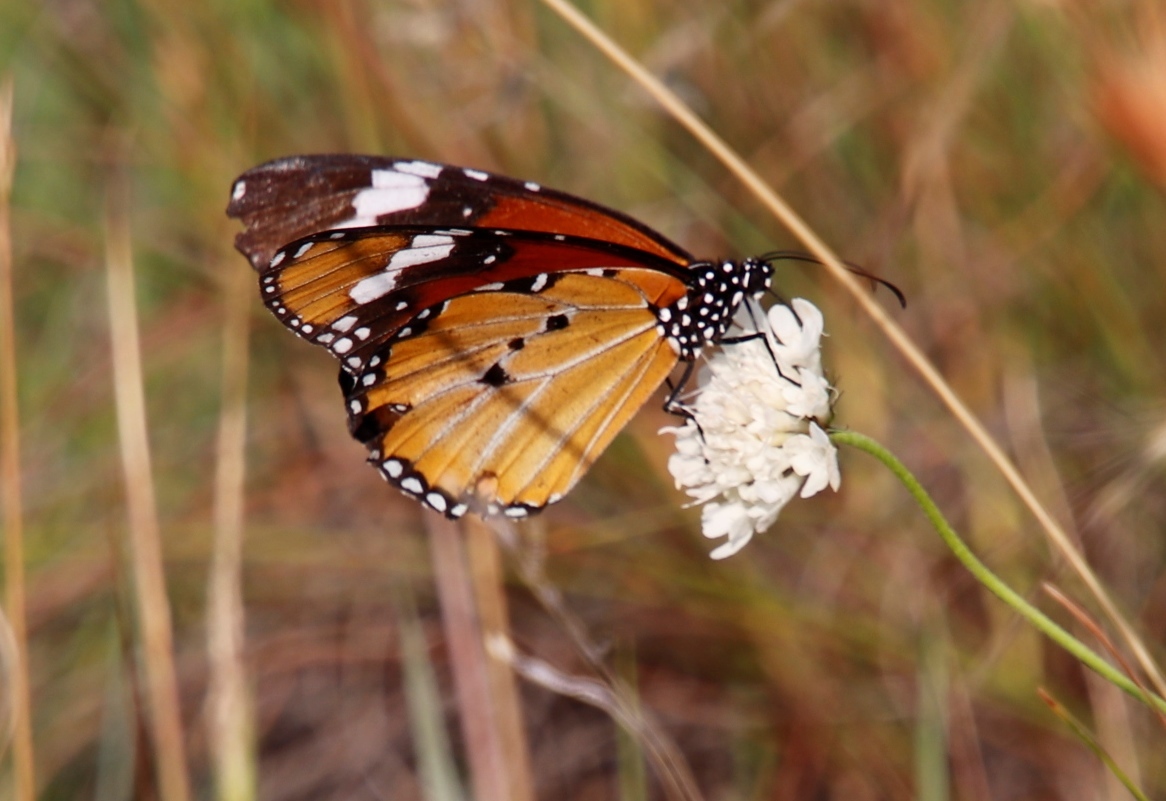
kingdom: Animalia
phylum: Arthropoda
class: Insecta
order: Lepidoptera
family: Nymphalidae
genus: Danaus
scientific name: Danaus chrysippus
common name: Plain tiger
